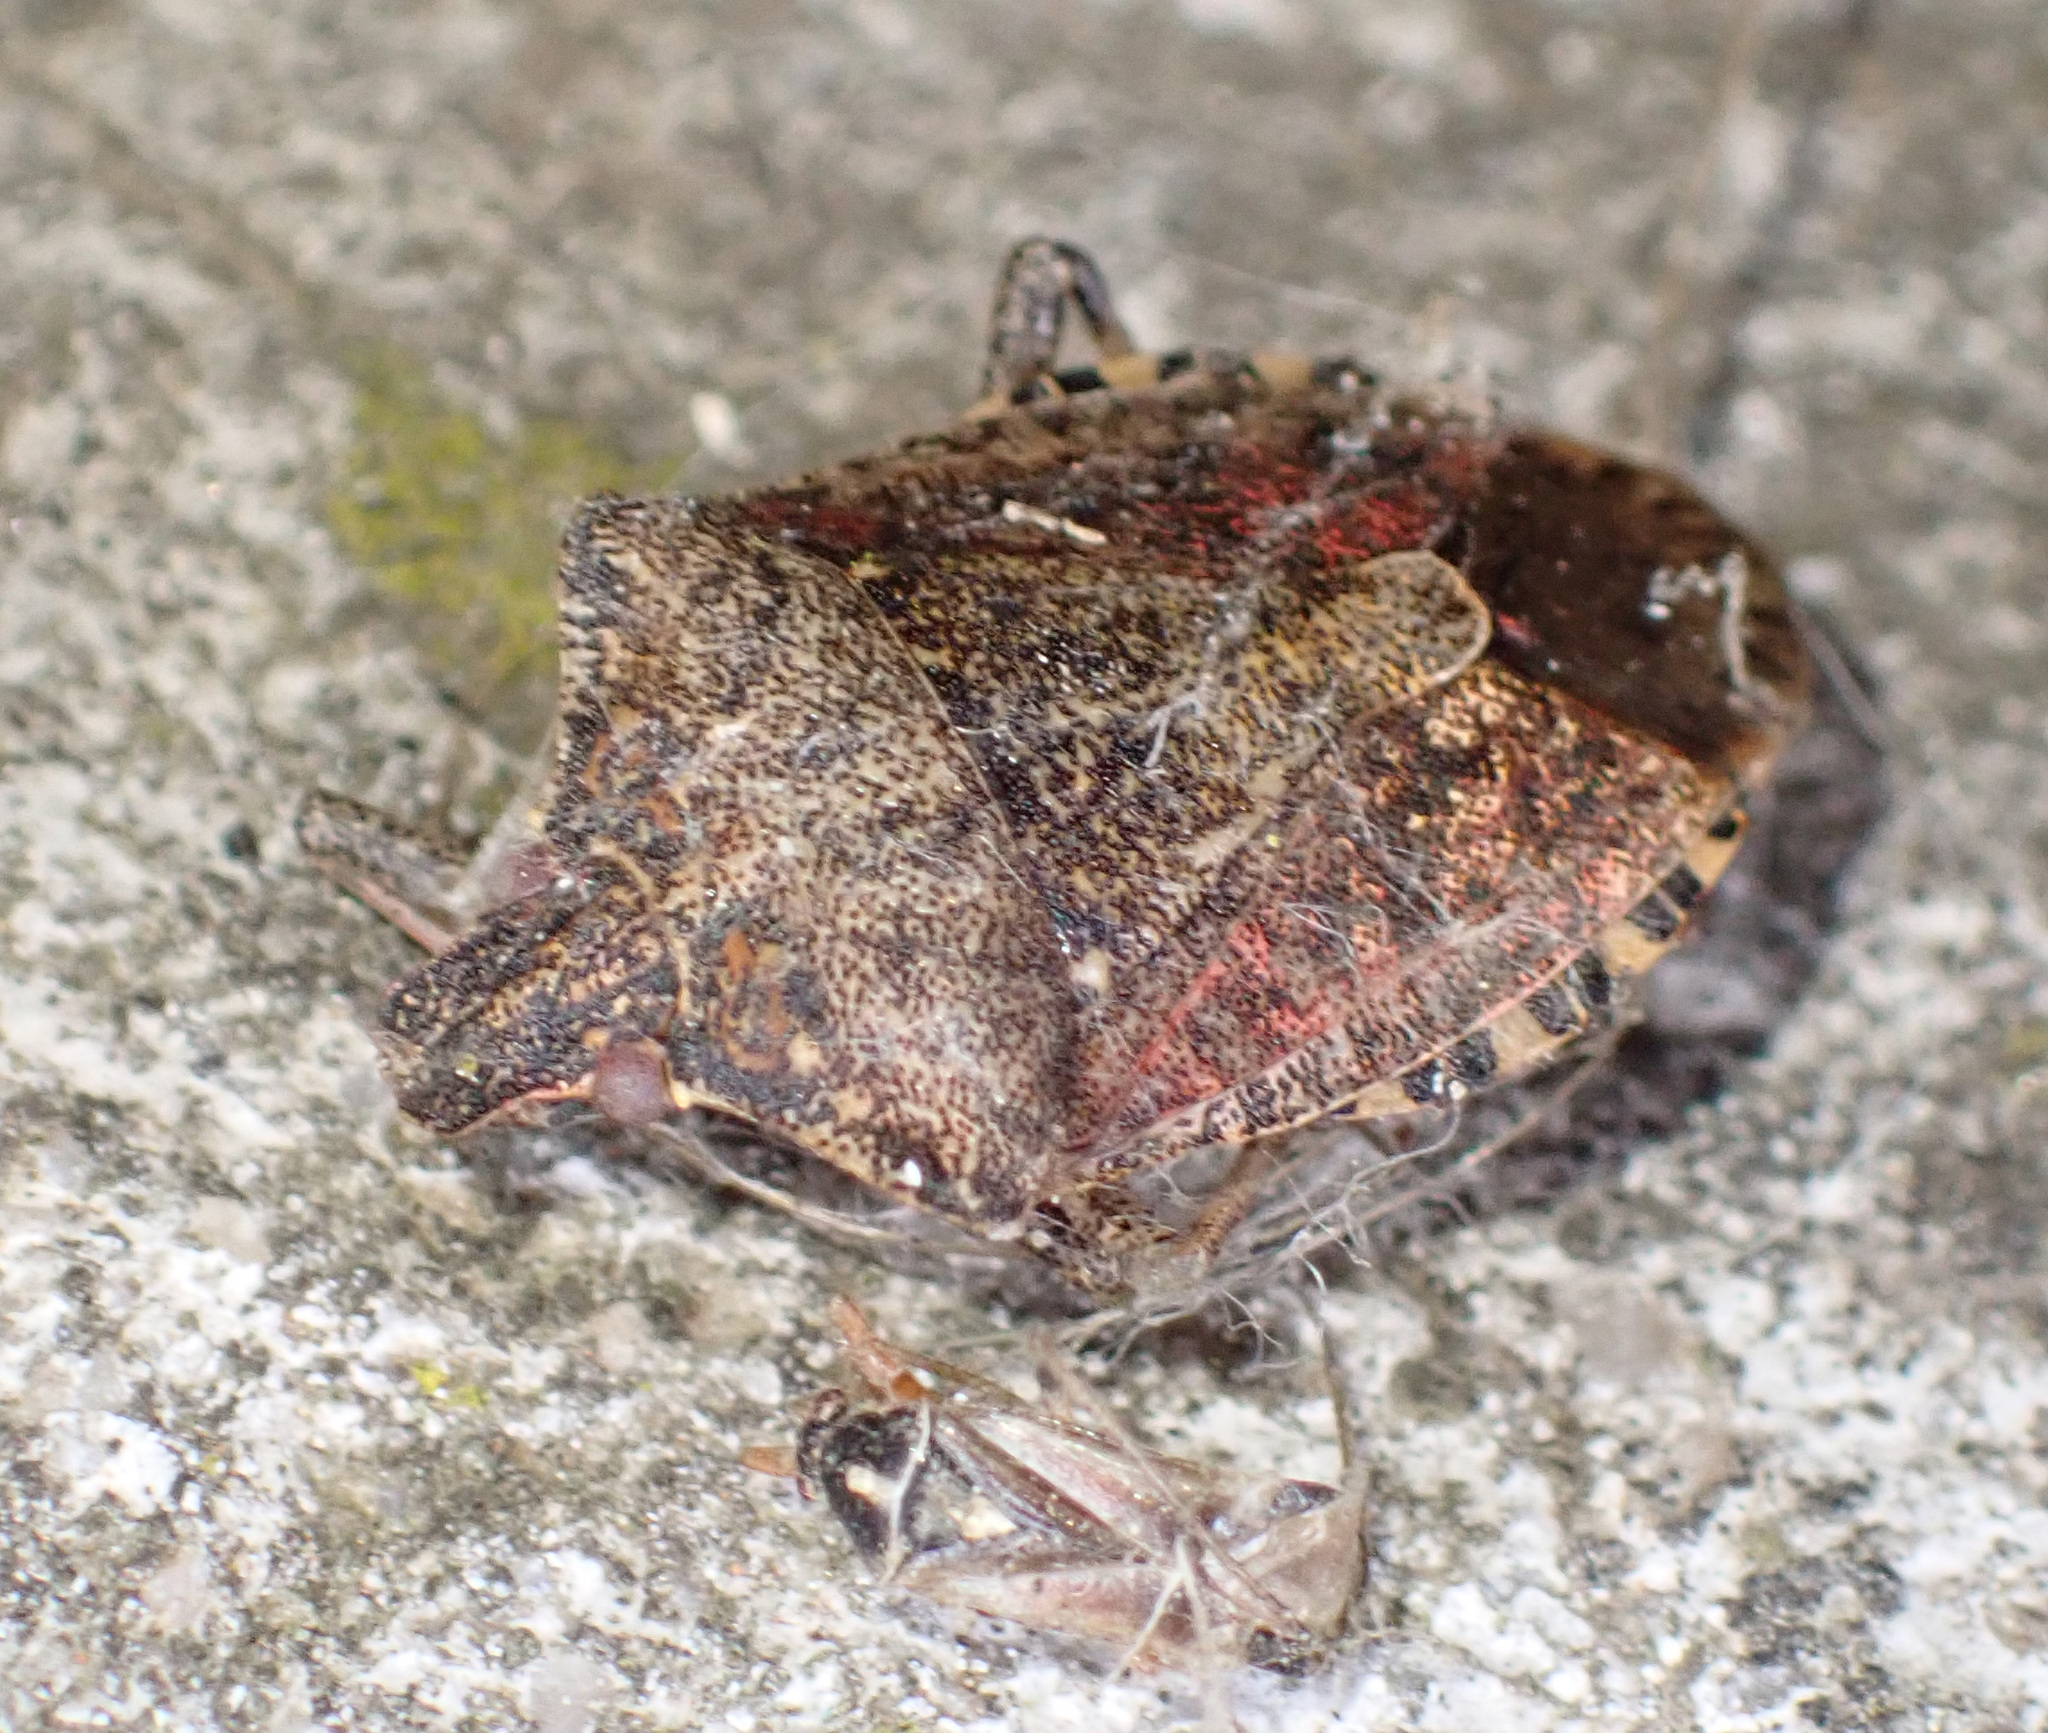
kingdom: Animalia
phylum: Arthropoda
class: Insecta
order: Hemiptera
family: Pentatomidae
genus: Halyomorpha
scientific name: Halyomorpha halys
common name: Brown marmorated stink bug
